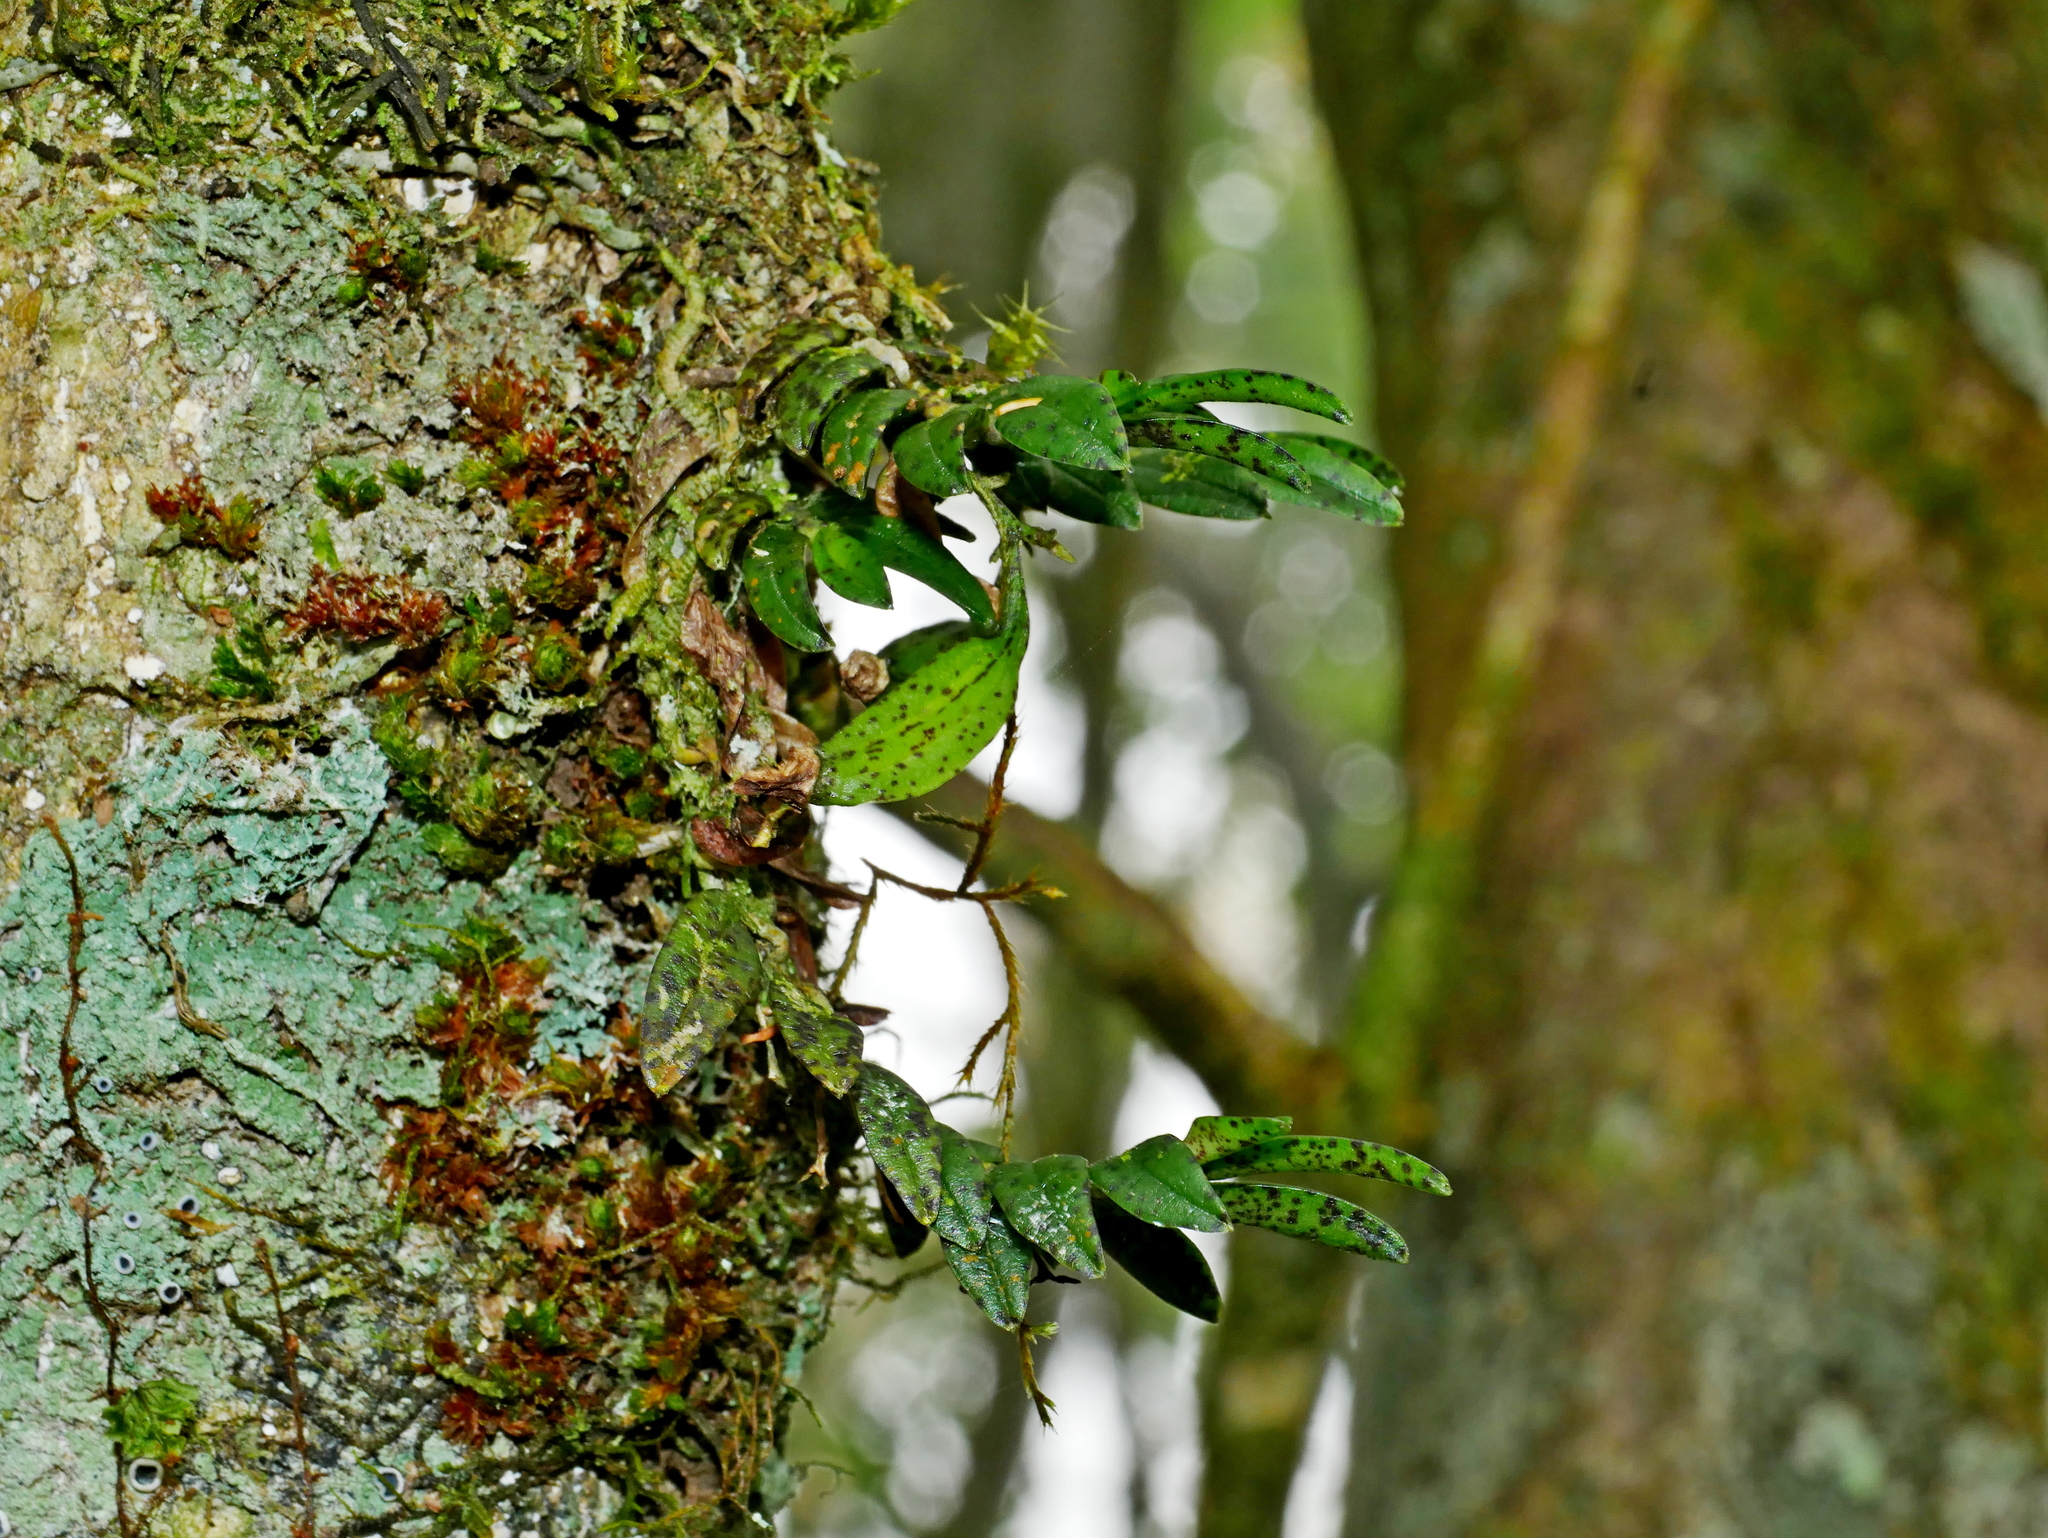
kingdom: Plantae
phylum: Tracheophyta
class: Liliopsida
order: Asparagales
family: Orchidaceae
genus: Gastrochilus
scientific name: Gastrochilus fuscopunctatus
